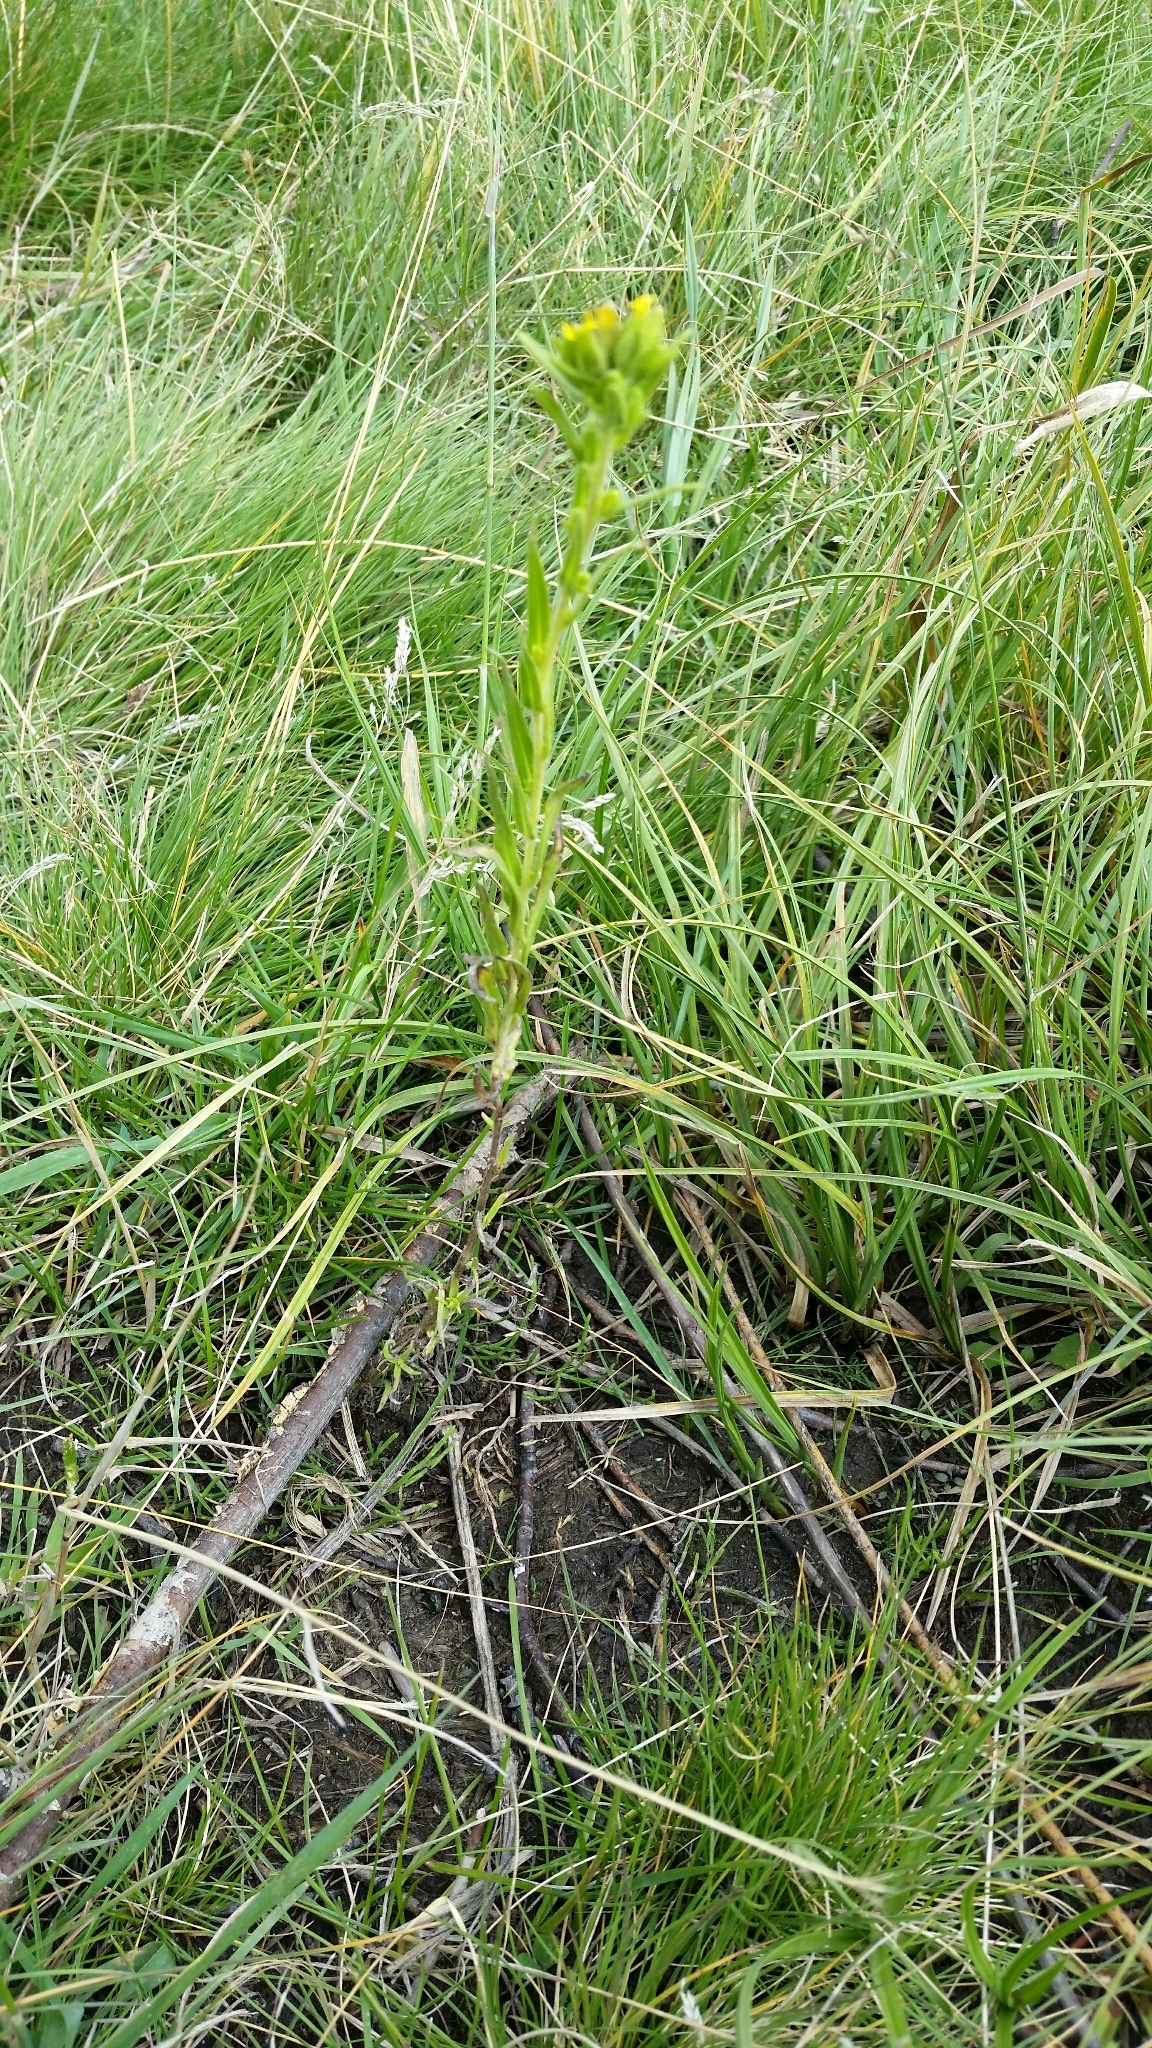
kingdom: Plantae
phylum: Tracheophyta
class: Magnoliopsida
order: Asterales
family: Asteraceae
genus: Madia
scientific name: Madia glomerata
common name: Mountain tarweed
